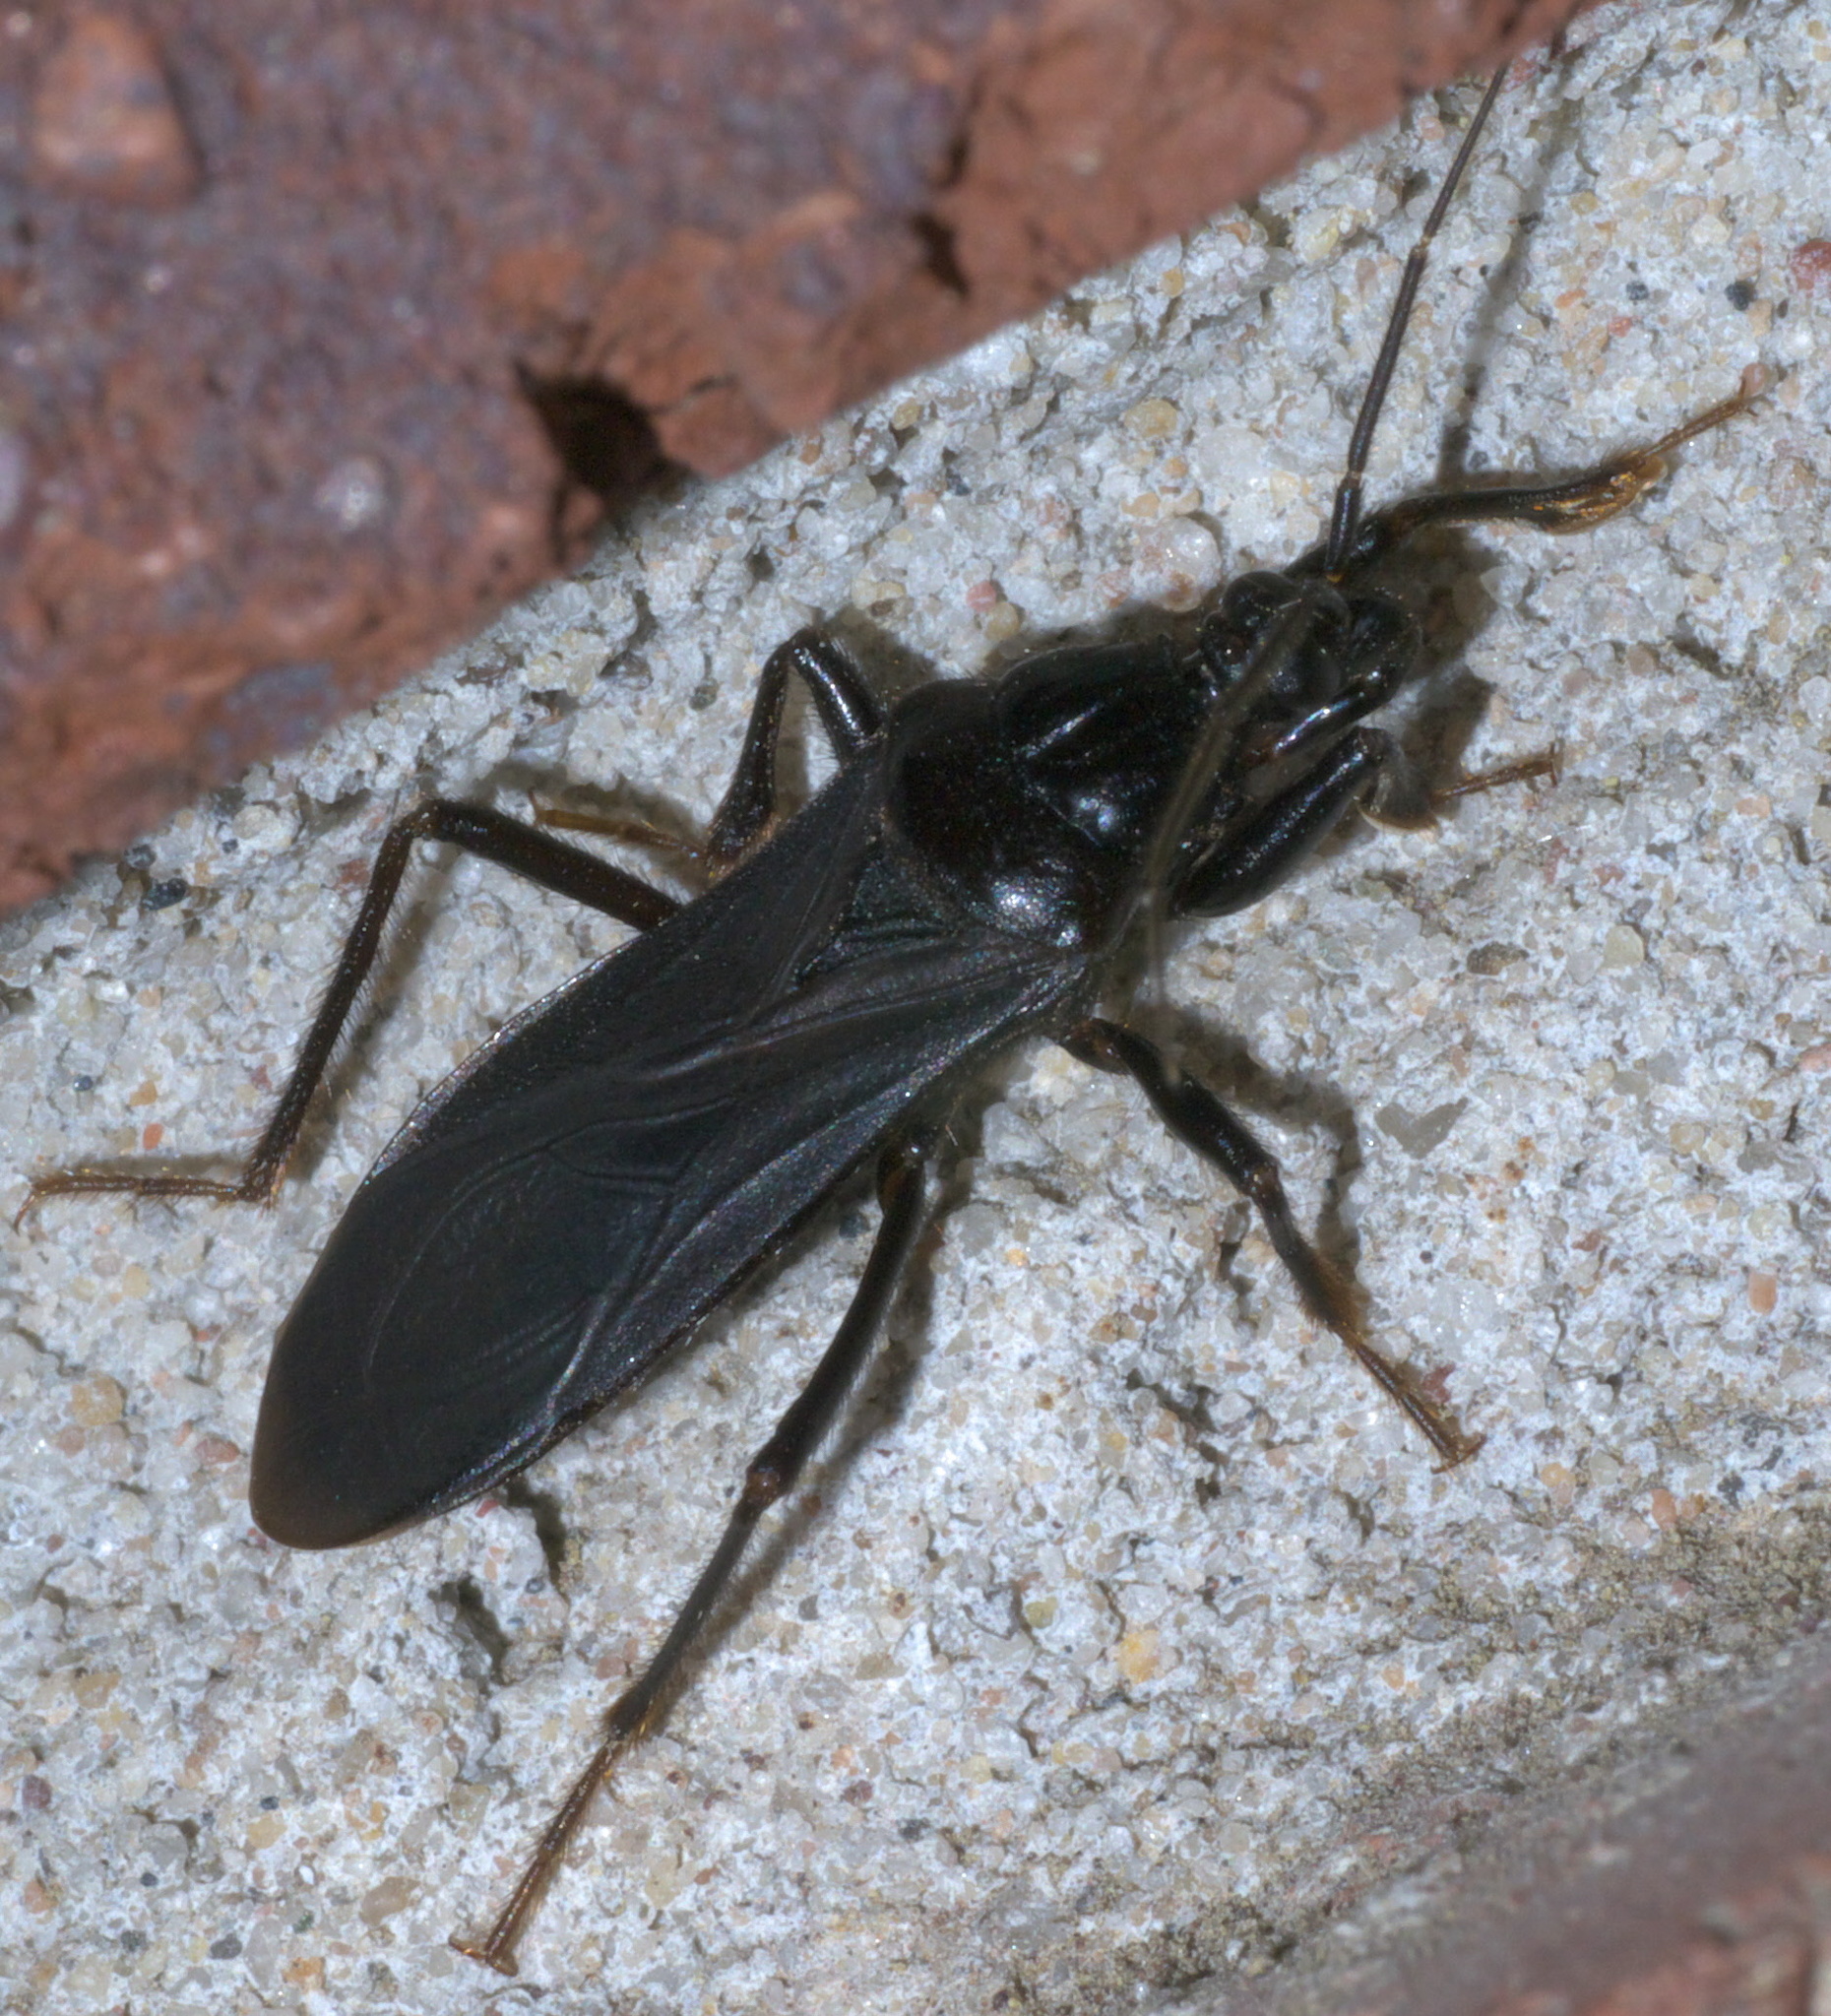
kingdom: Animalia
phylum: Arthropoda
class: Insecta
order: Hemiptera
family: Reduviidae
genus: Melanolestes
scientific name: Melanolestes picipes
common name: Assassin bug
